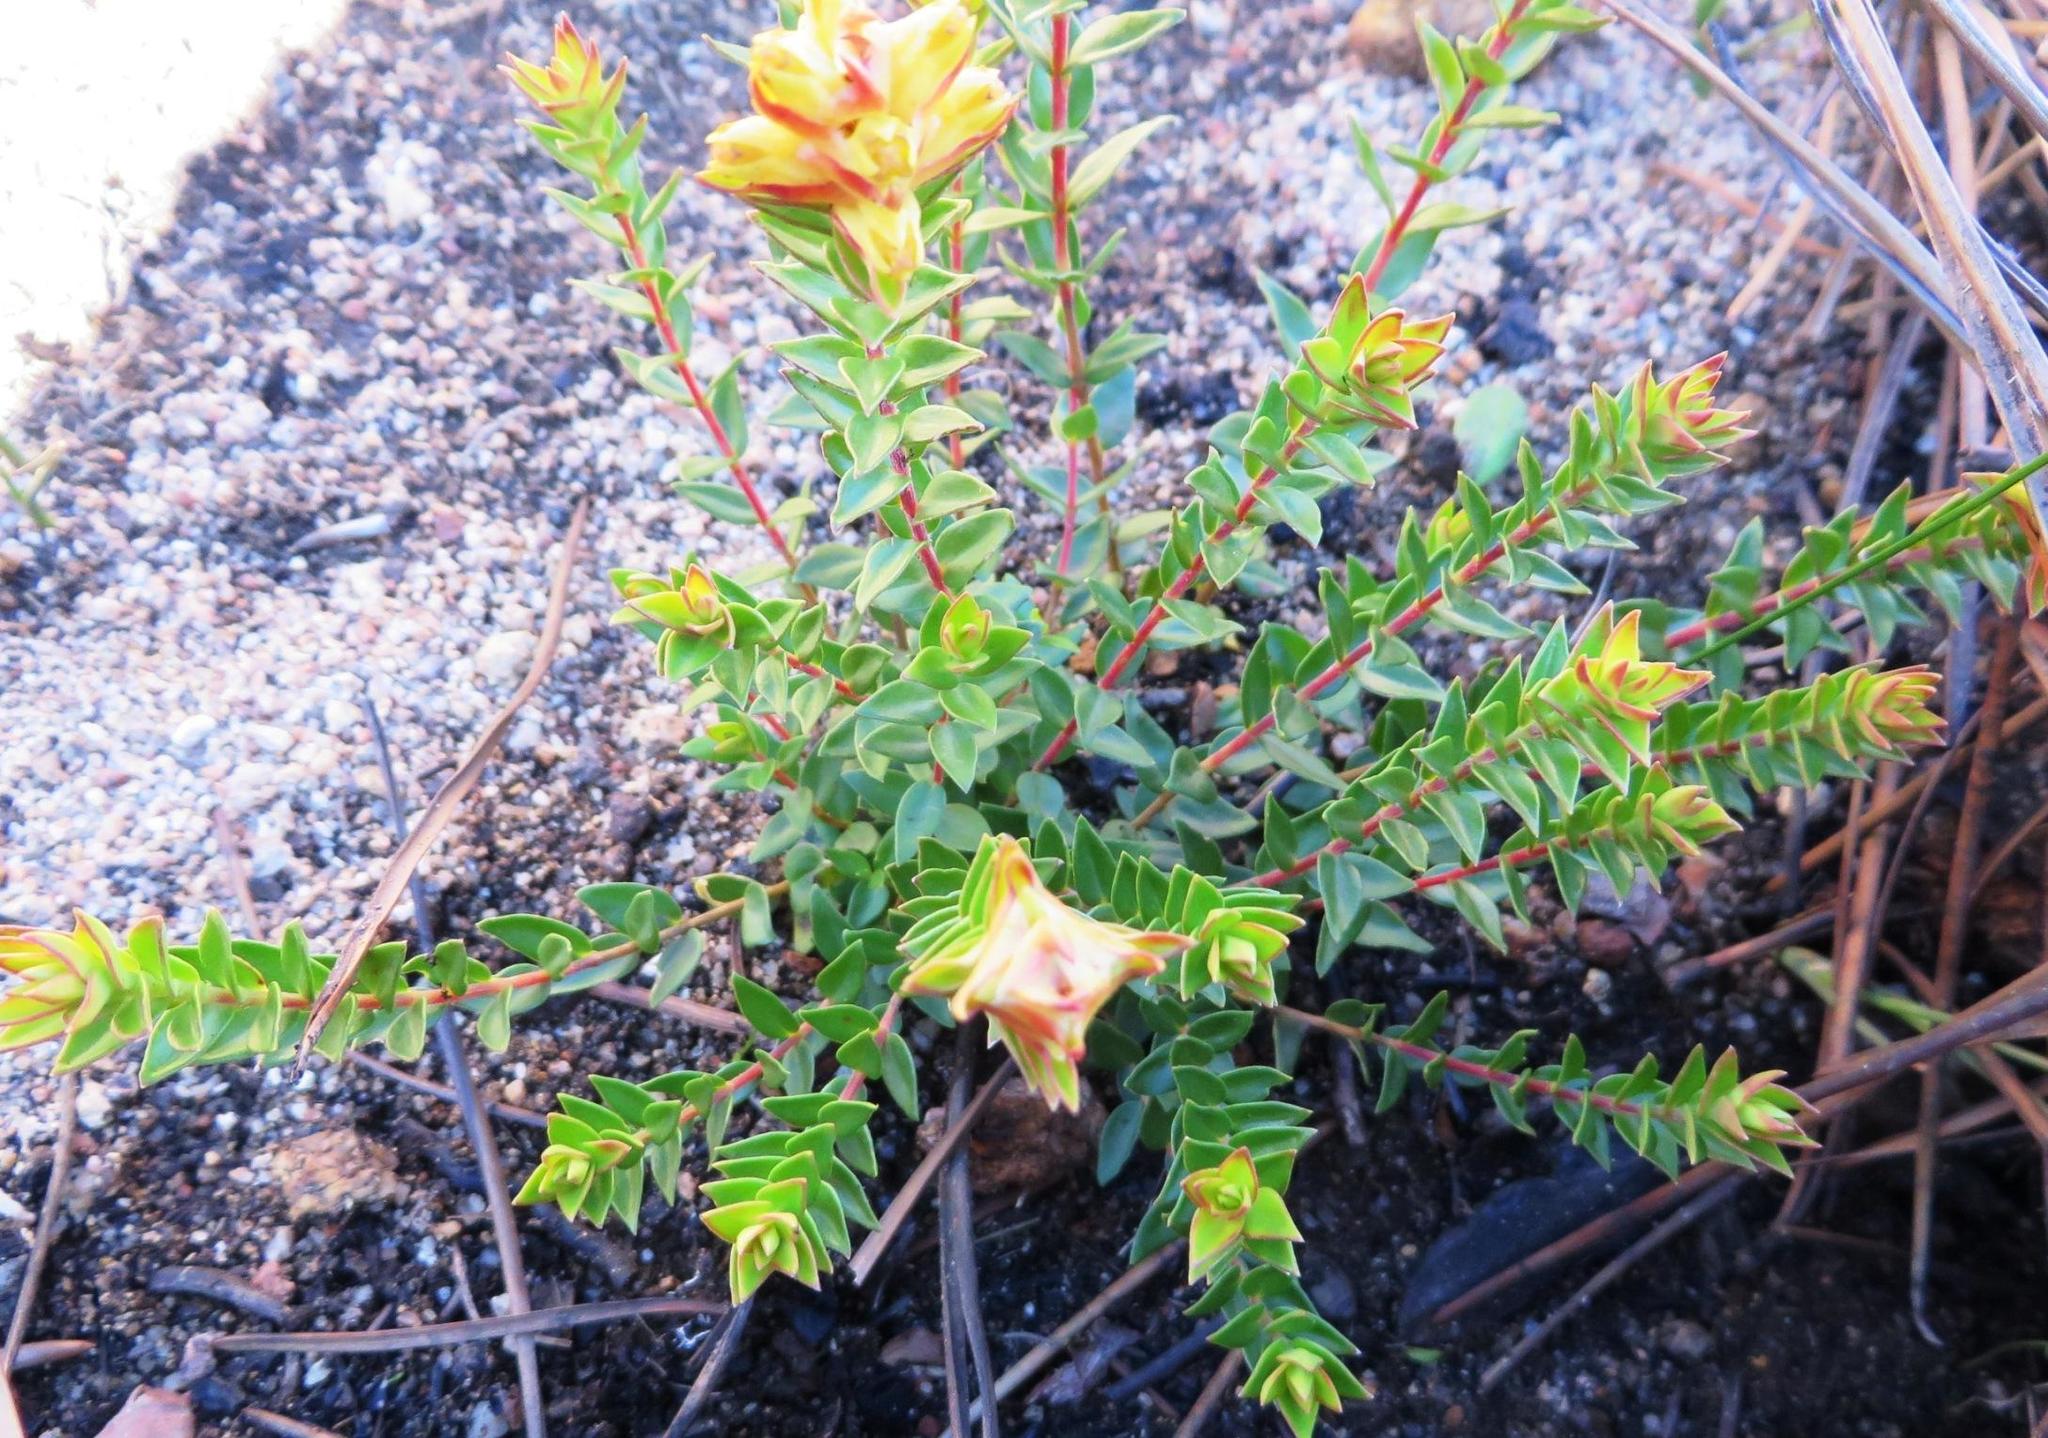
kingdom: Plantae
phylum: Tracheophyta
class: Magnoliopsida
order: Myrtales
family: Penaeaceae
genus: Penaea
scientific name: Penaea mucronata
